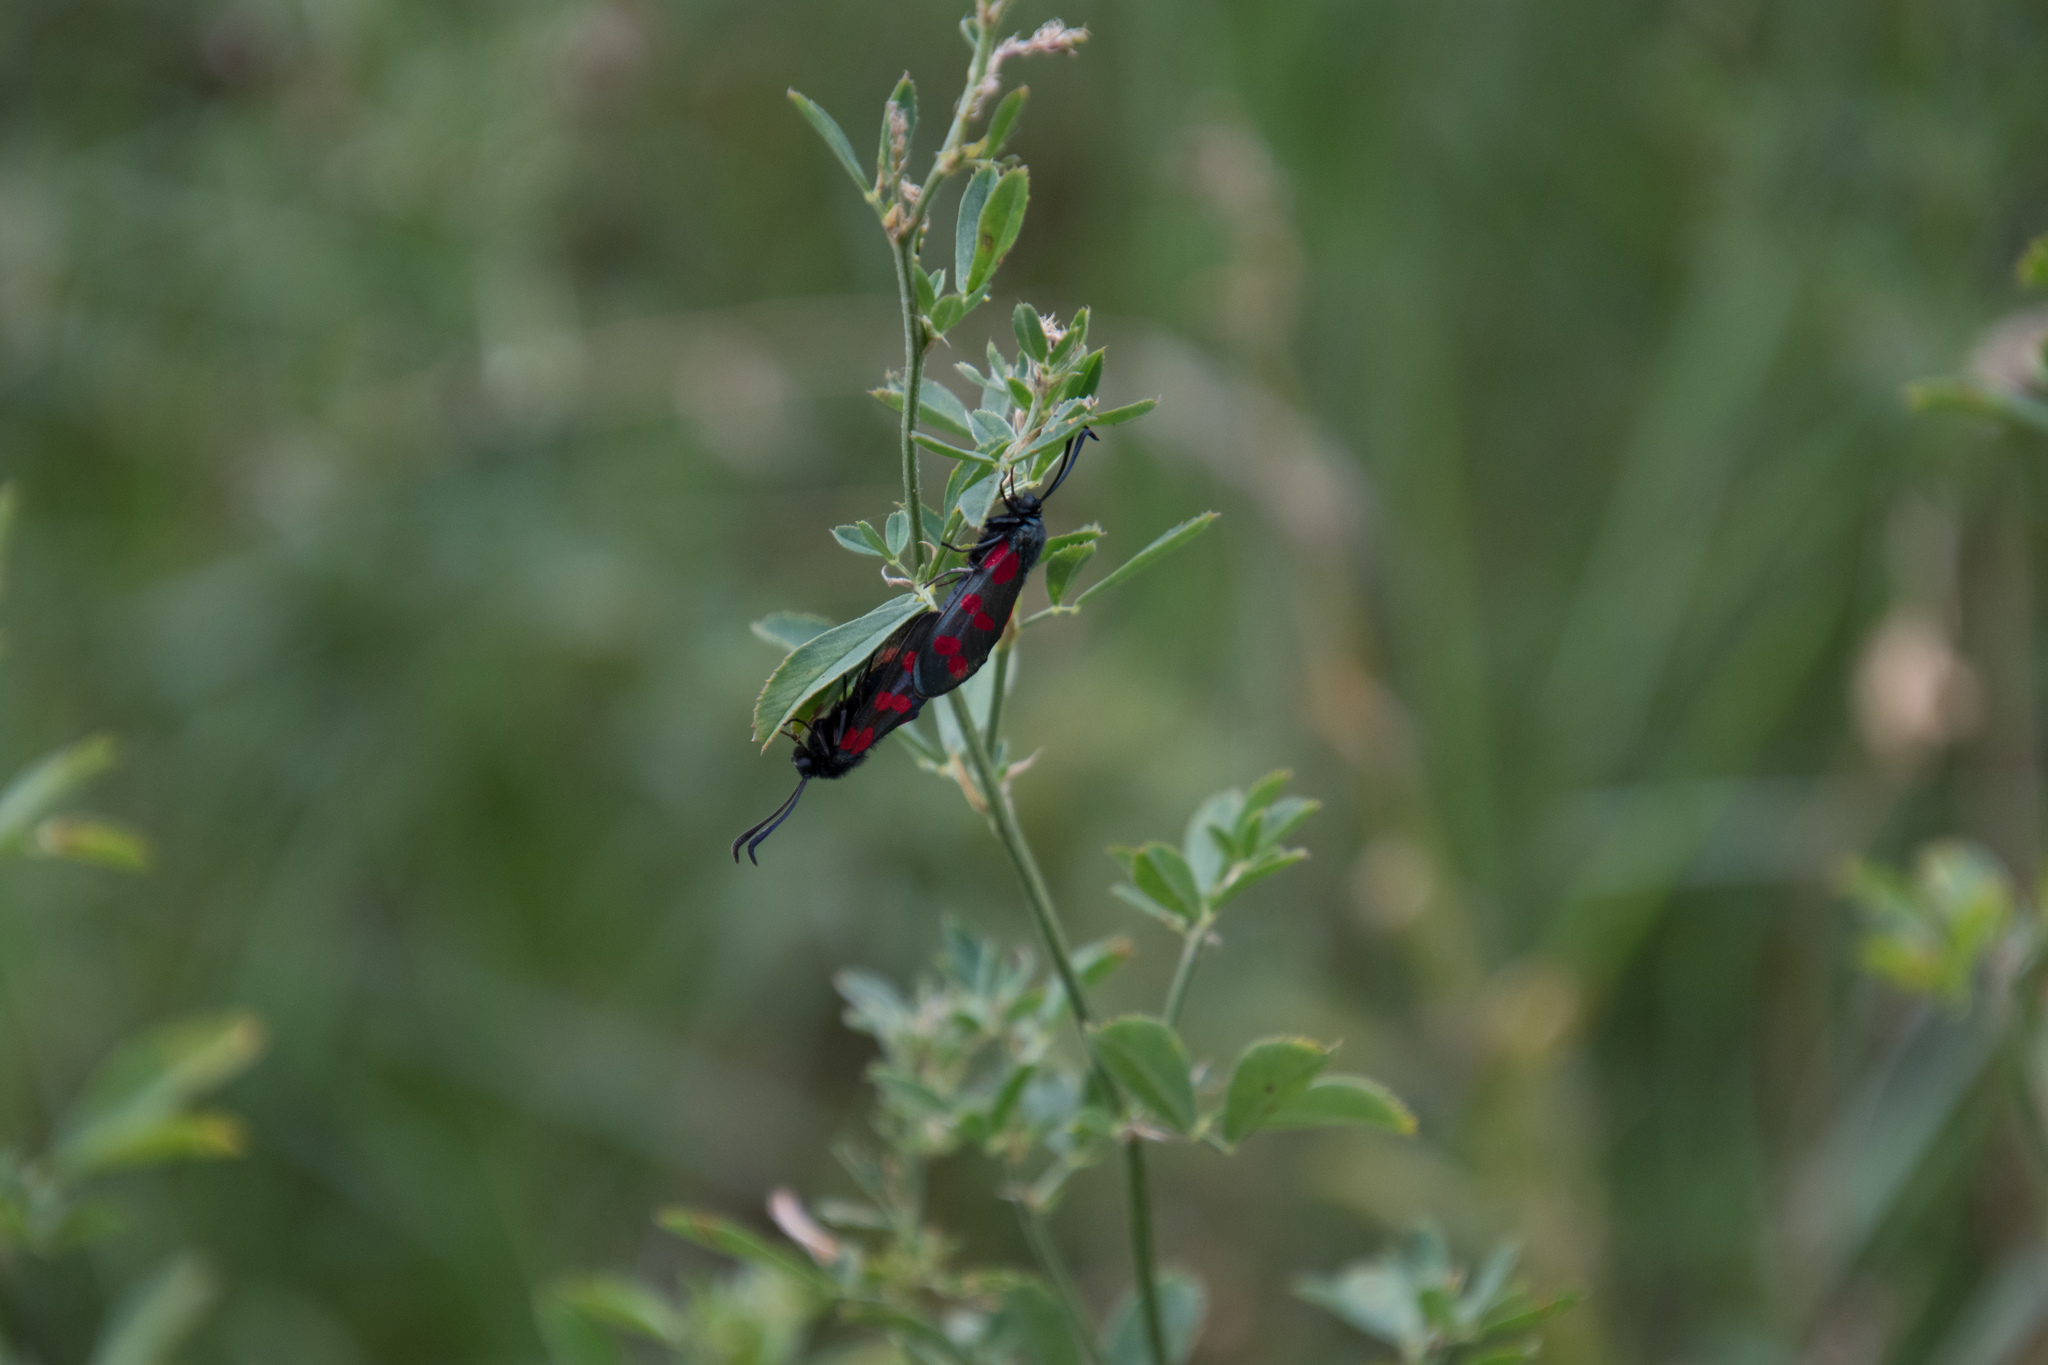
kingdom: Animalia
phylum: Arthropoda
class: Insecta
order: Lepidoptera
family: Zygaenidae
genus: Zygaena
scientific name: Zygaena filipendulae
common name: Six-spot burnet
